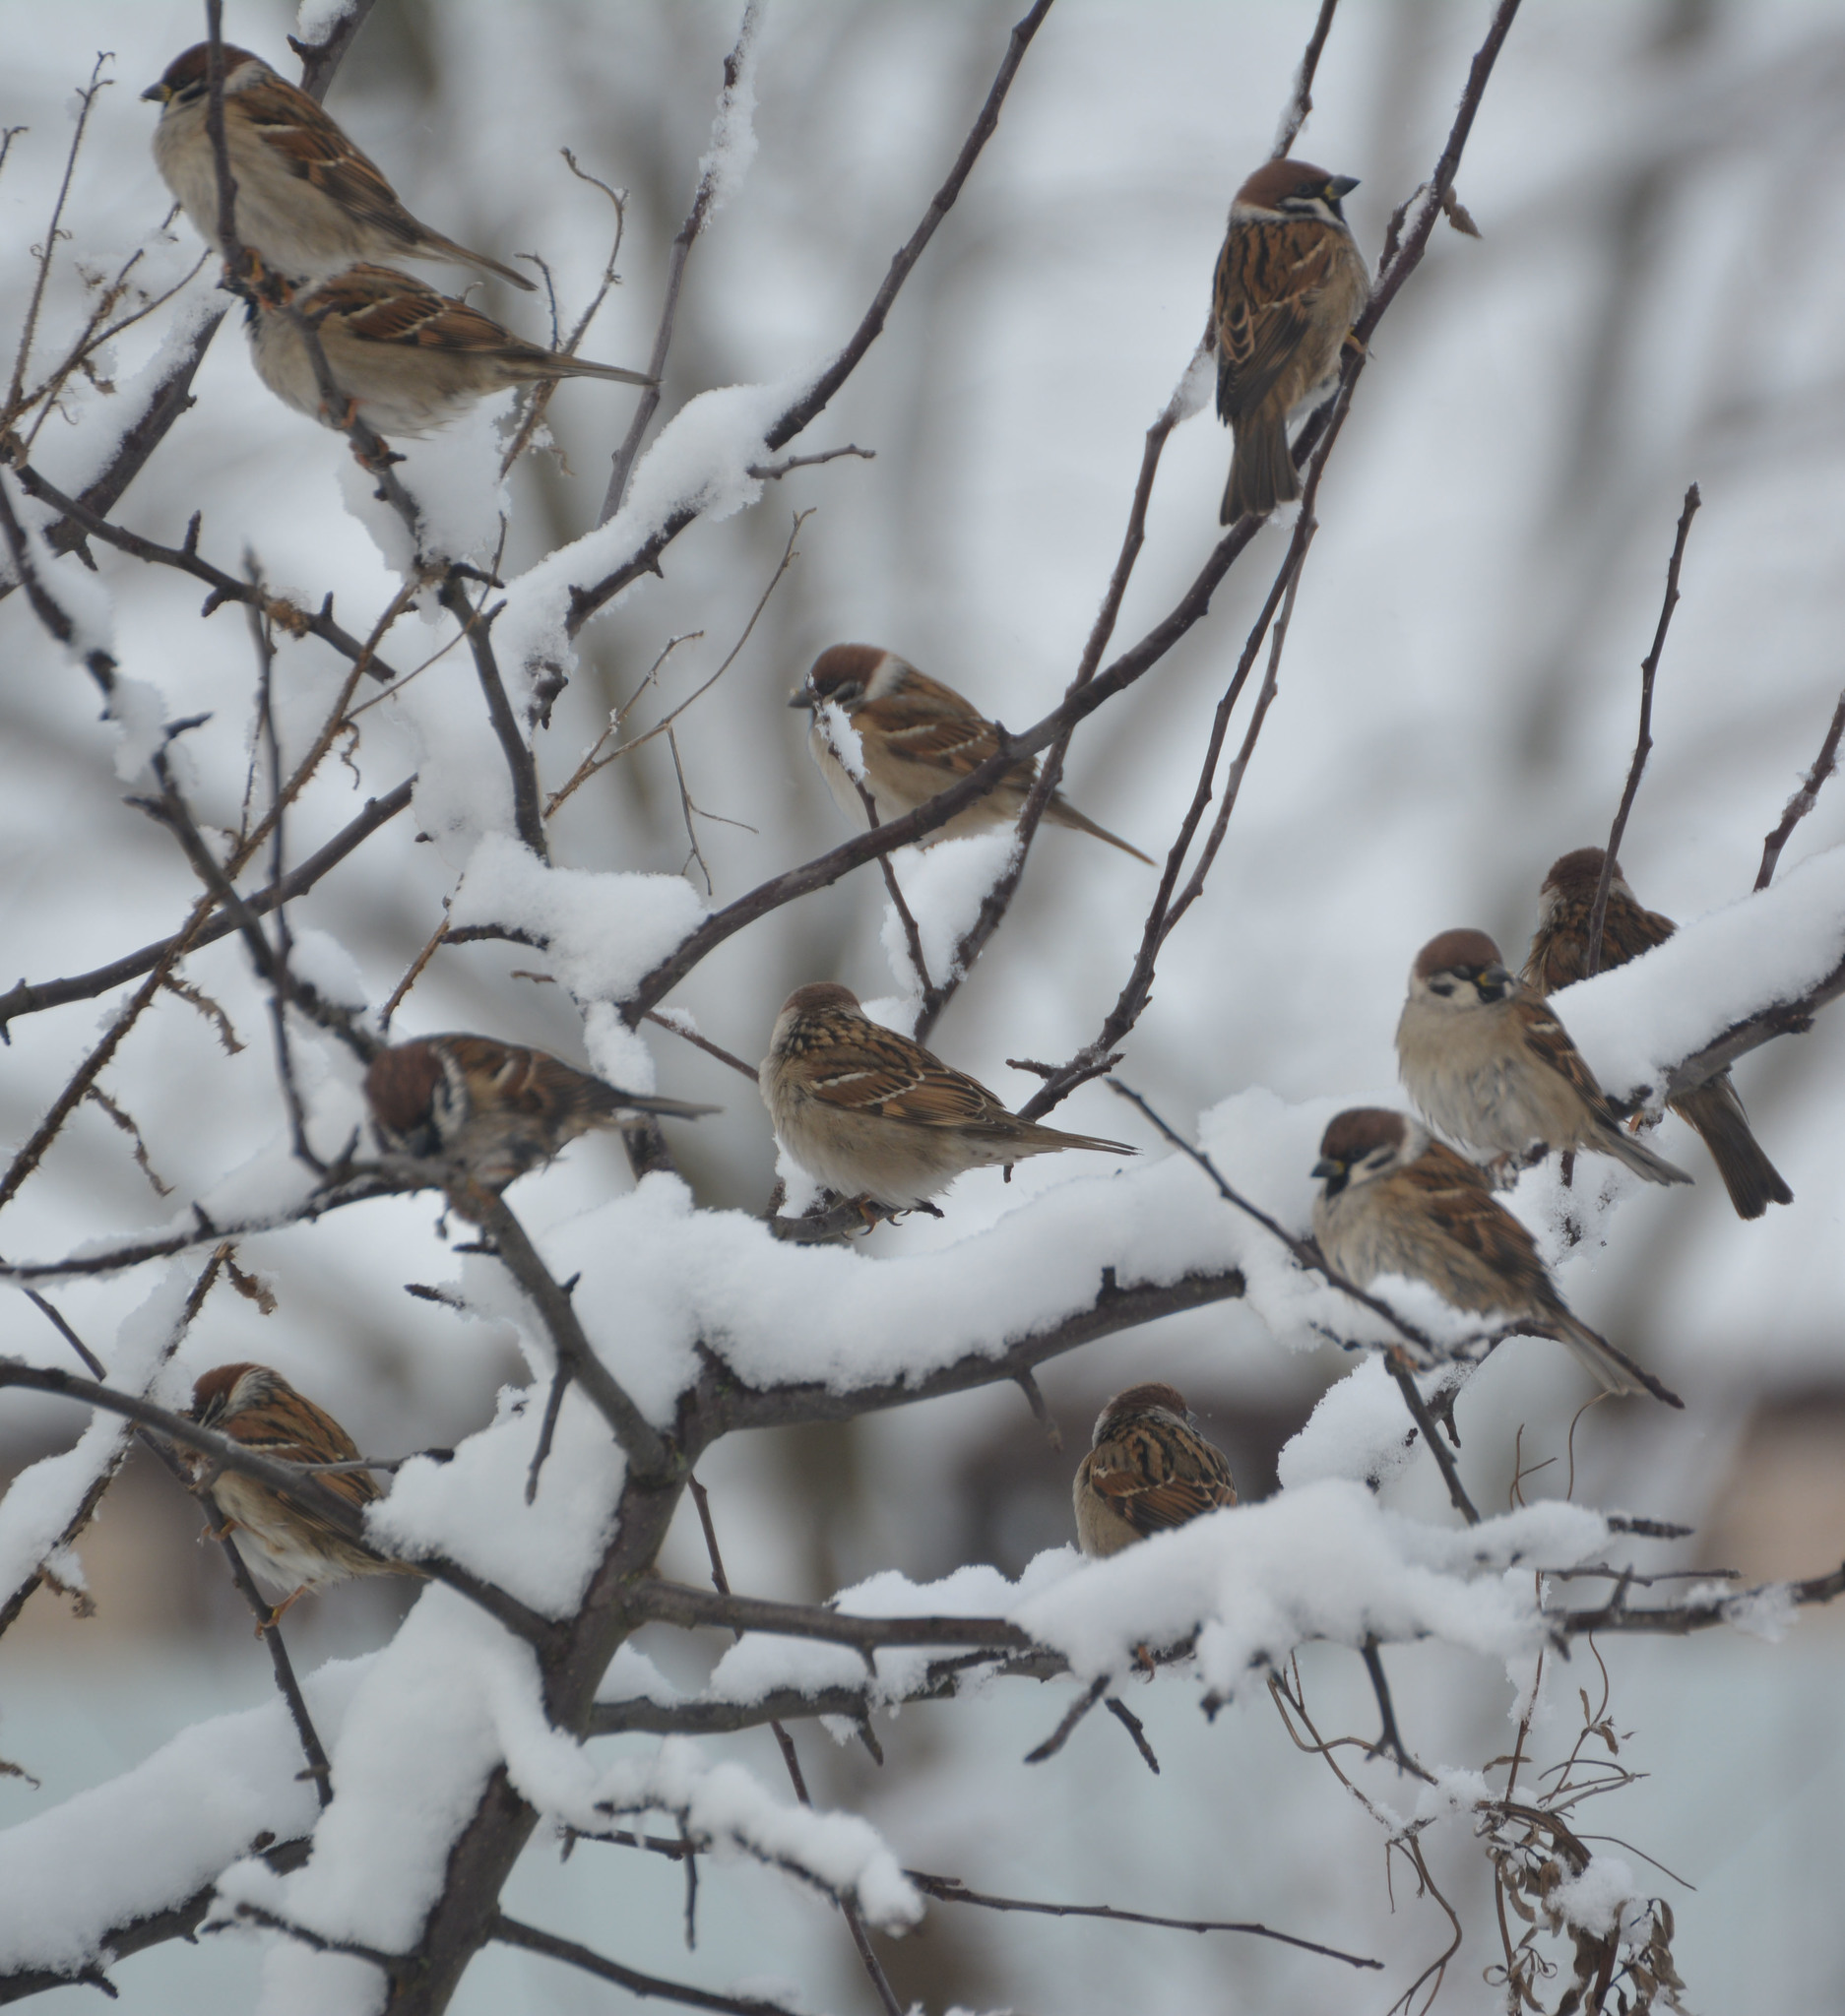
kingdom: Animalia
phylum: Chordata
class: Aves
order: Passeriformes
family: Passeridae
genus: Passer
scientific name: Passer montanus
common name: Eurasian tree sparrow
